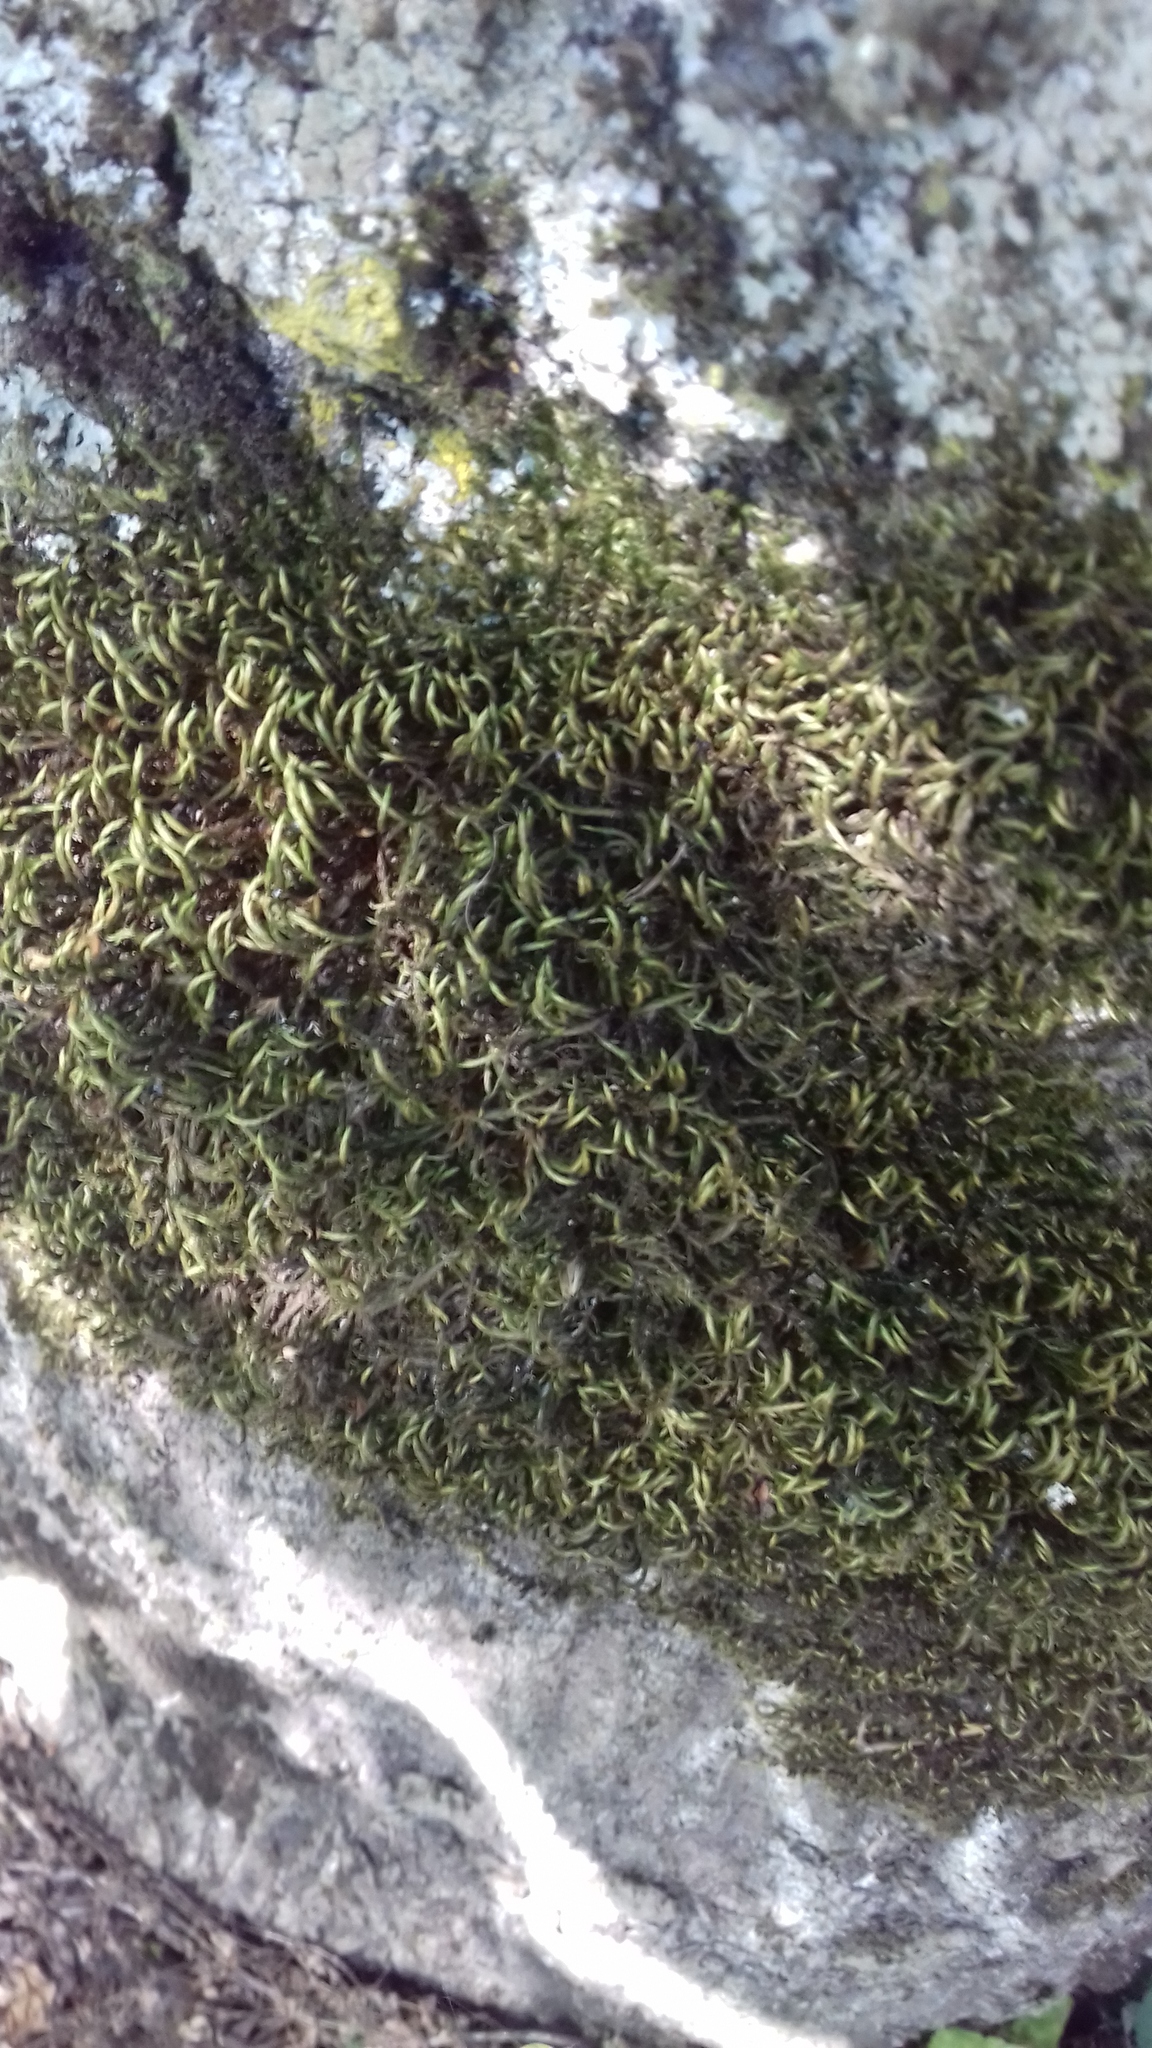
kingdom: Plantae
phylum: Bryophyta
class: Bryopsida
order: Hypnales
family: Leucodontaceae
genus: Leucodon
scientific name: Leucodon sciuroides
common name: Squirrel-tail moss
